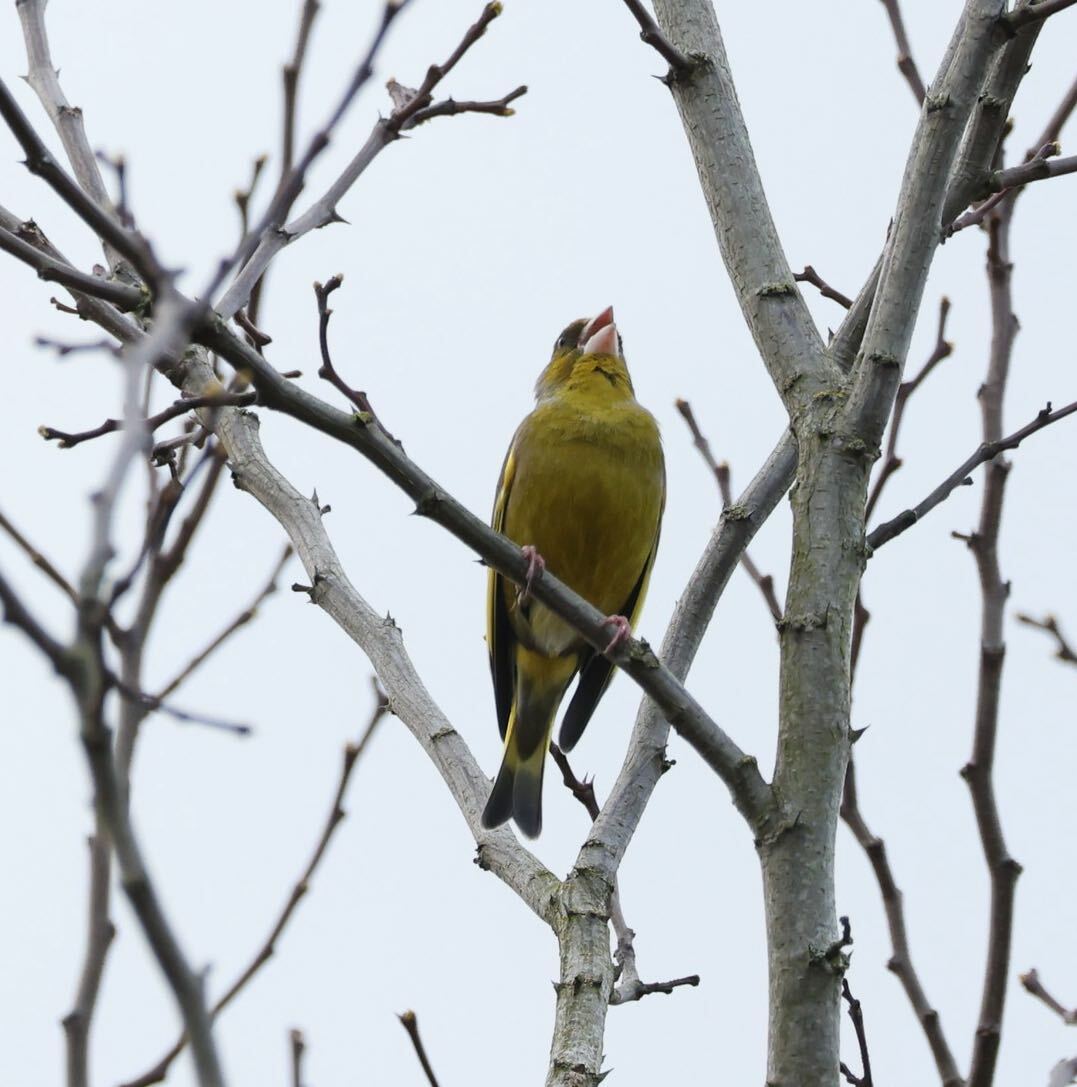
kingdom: Plantae
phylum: Tracheophyta
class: Liliopsida
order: Poales
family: Poaceae
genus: Chloris
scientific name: Chloris chloris
